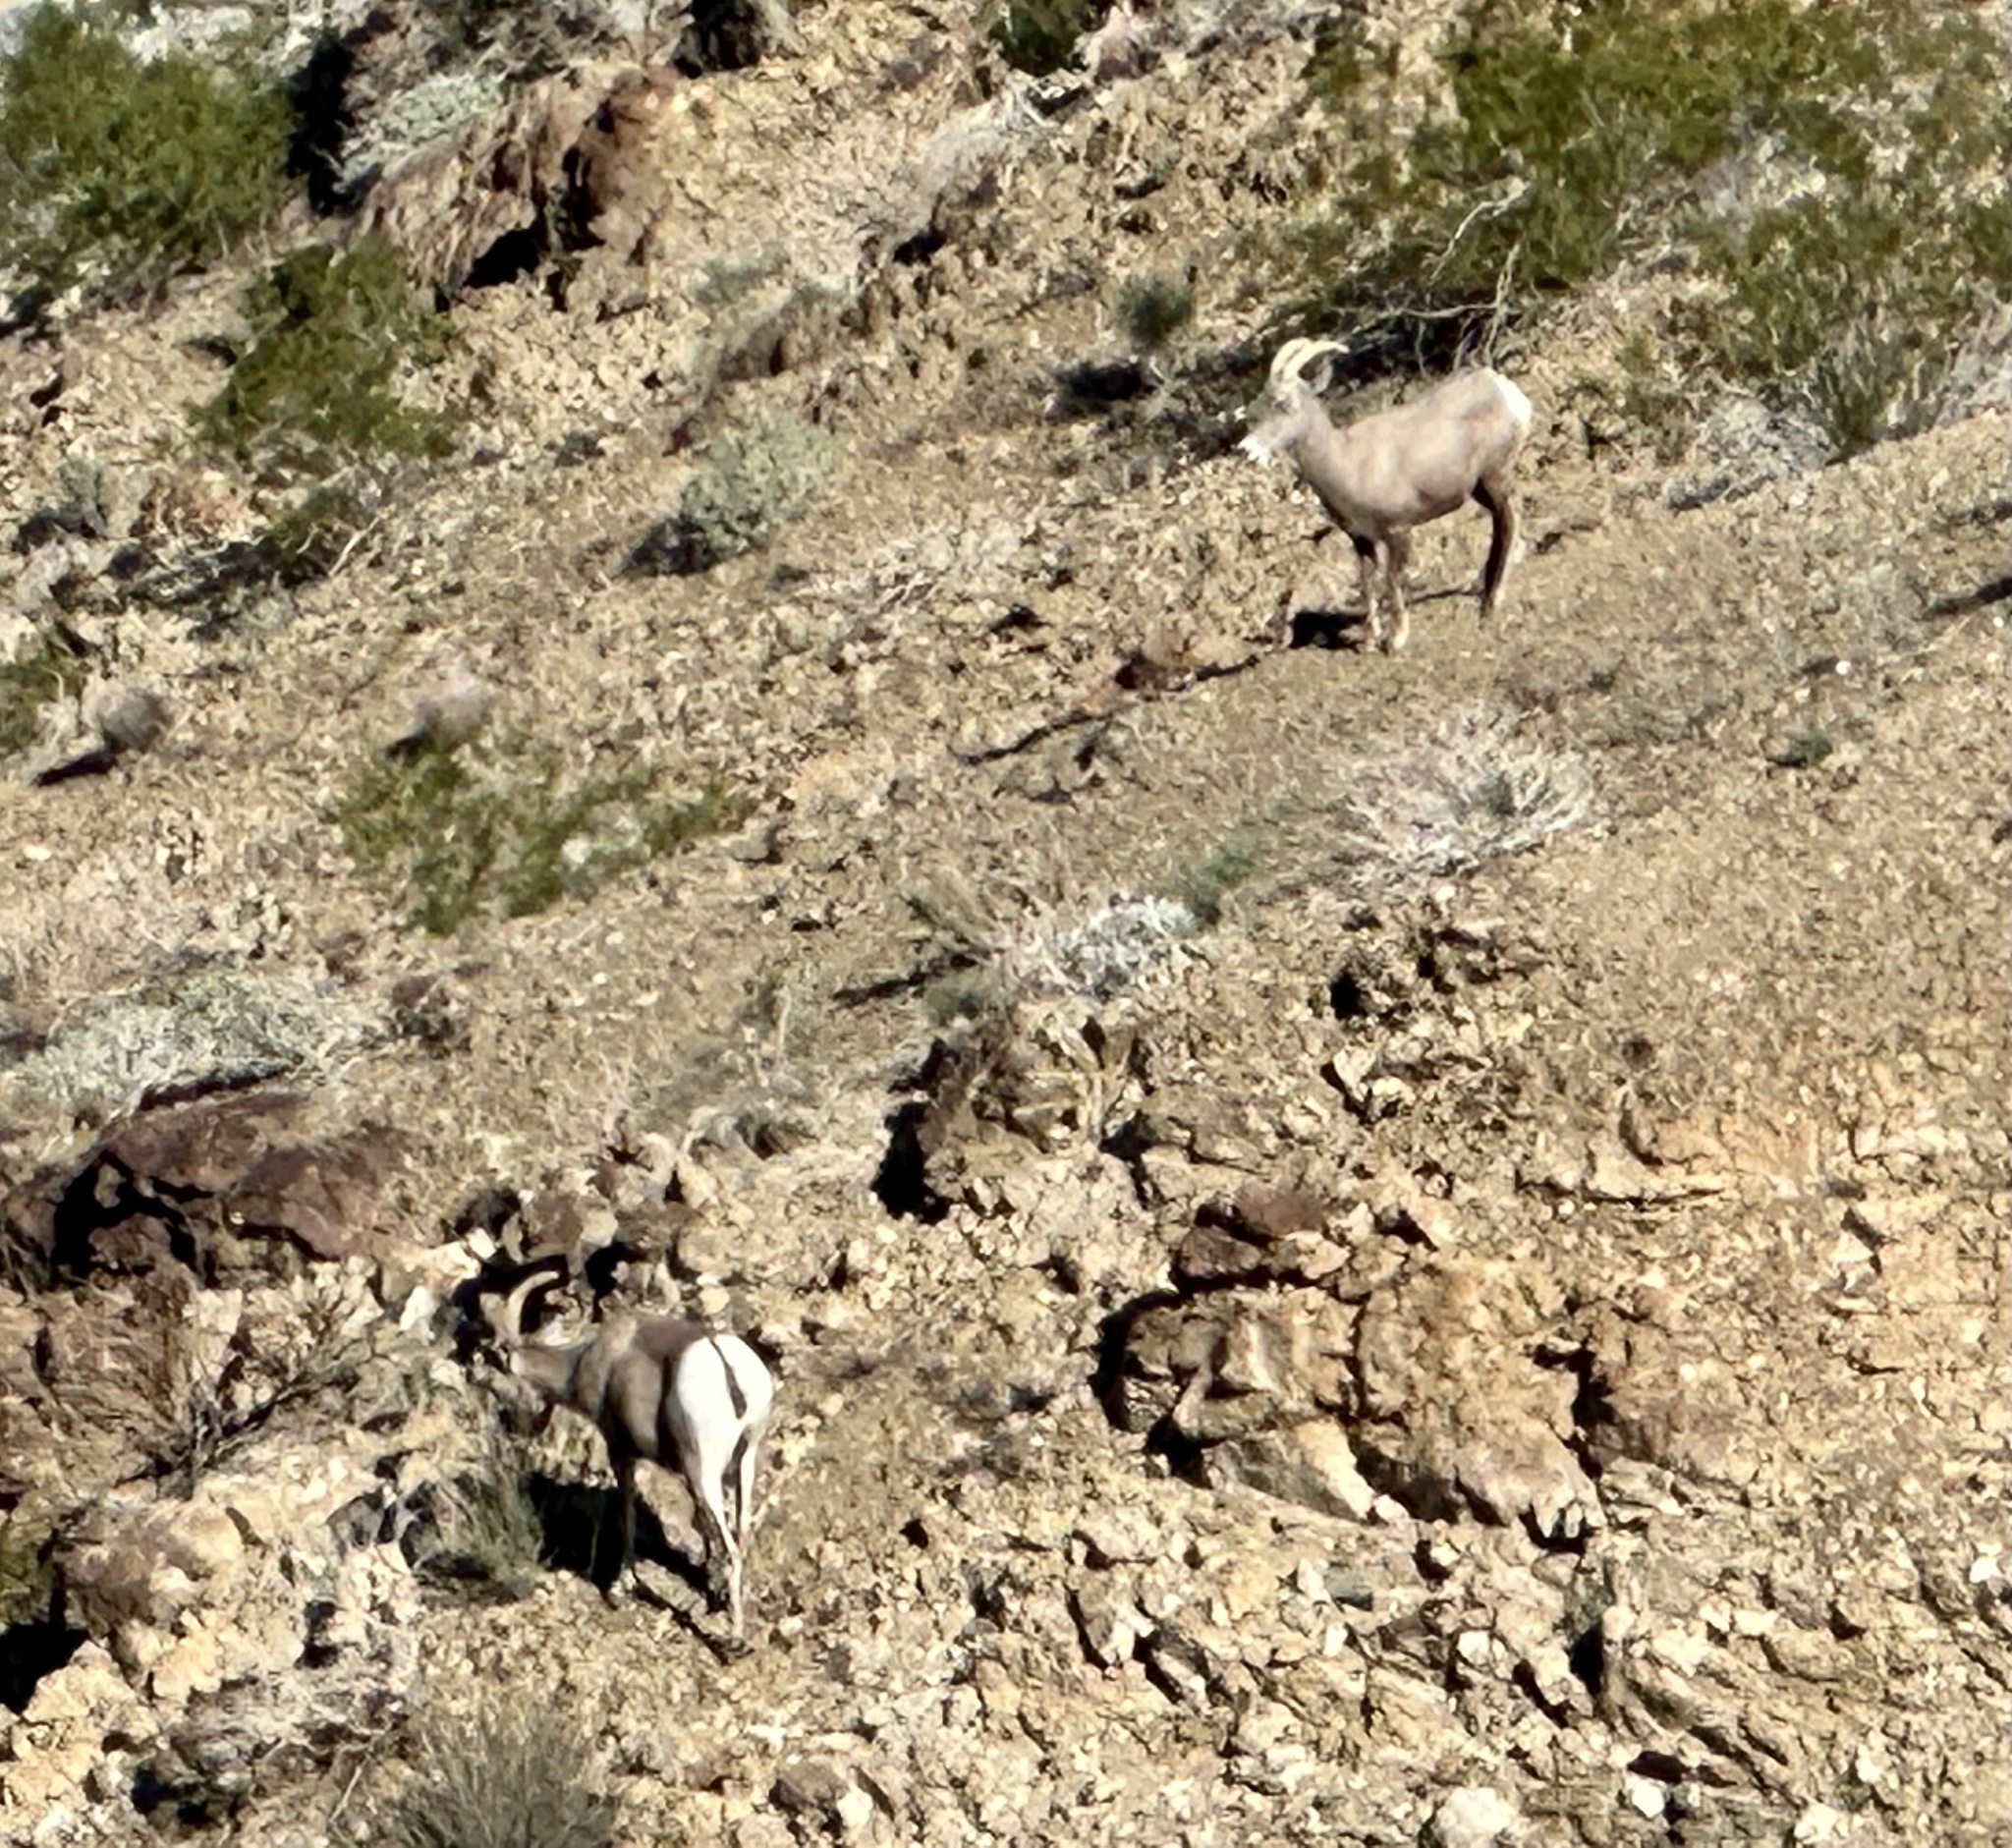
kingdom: Animalia
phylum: Chordata
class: Mammalia
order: Artiodactyla
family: Bovidae
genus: Ovis
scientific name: Ovis canadensis
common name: Bighorn sheep
